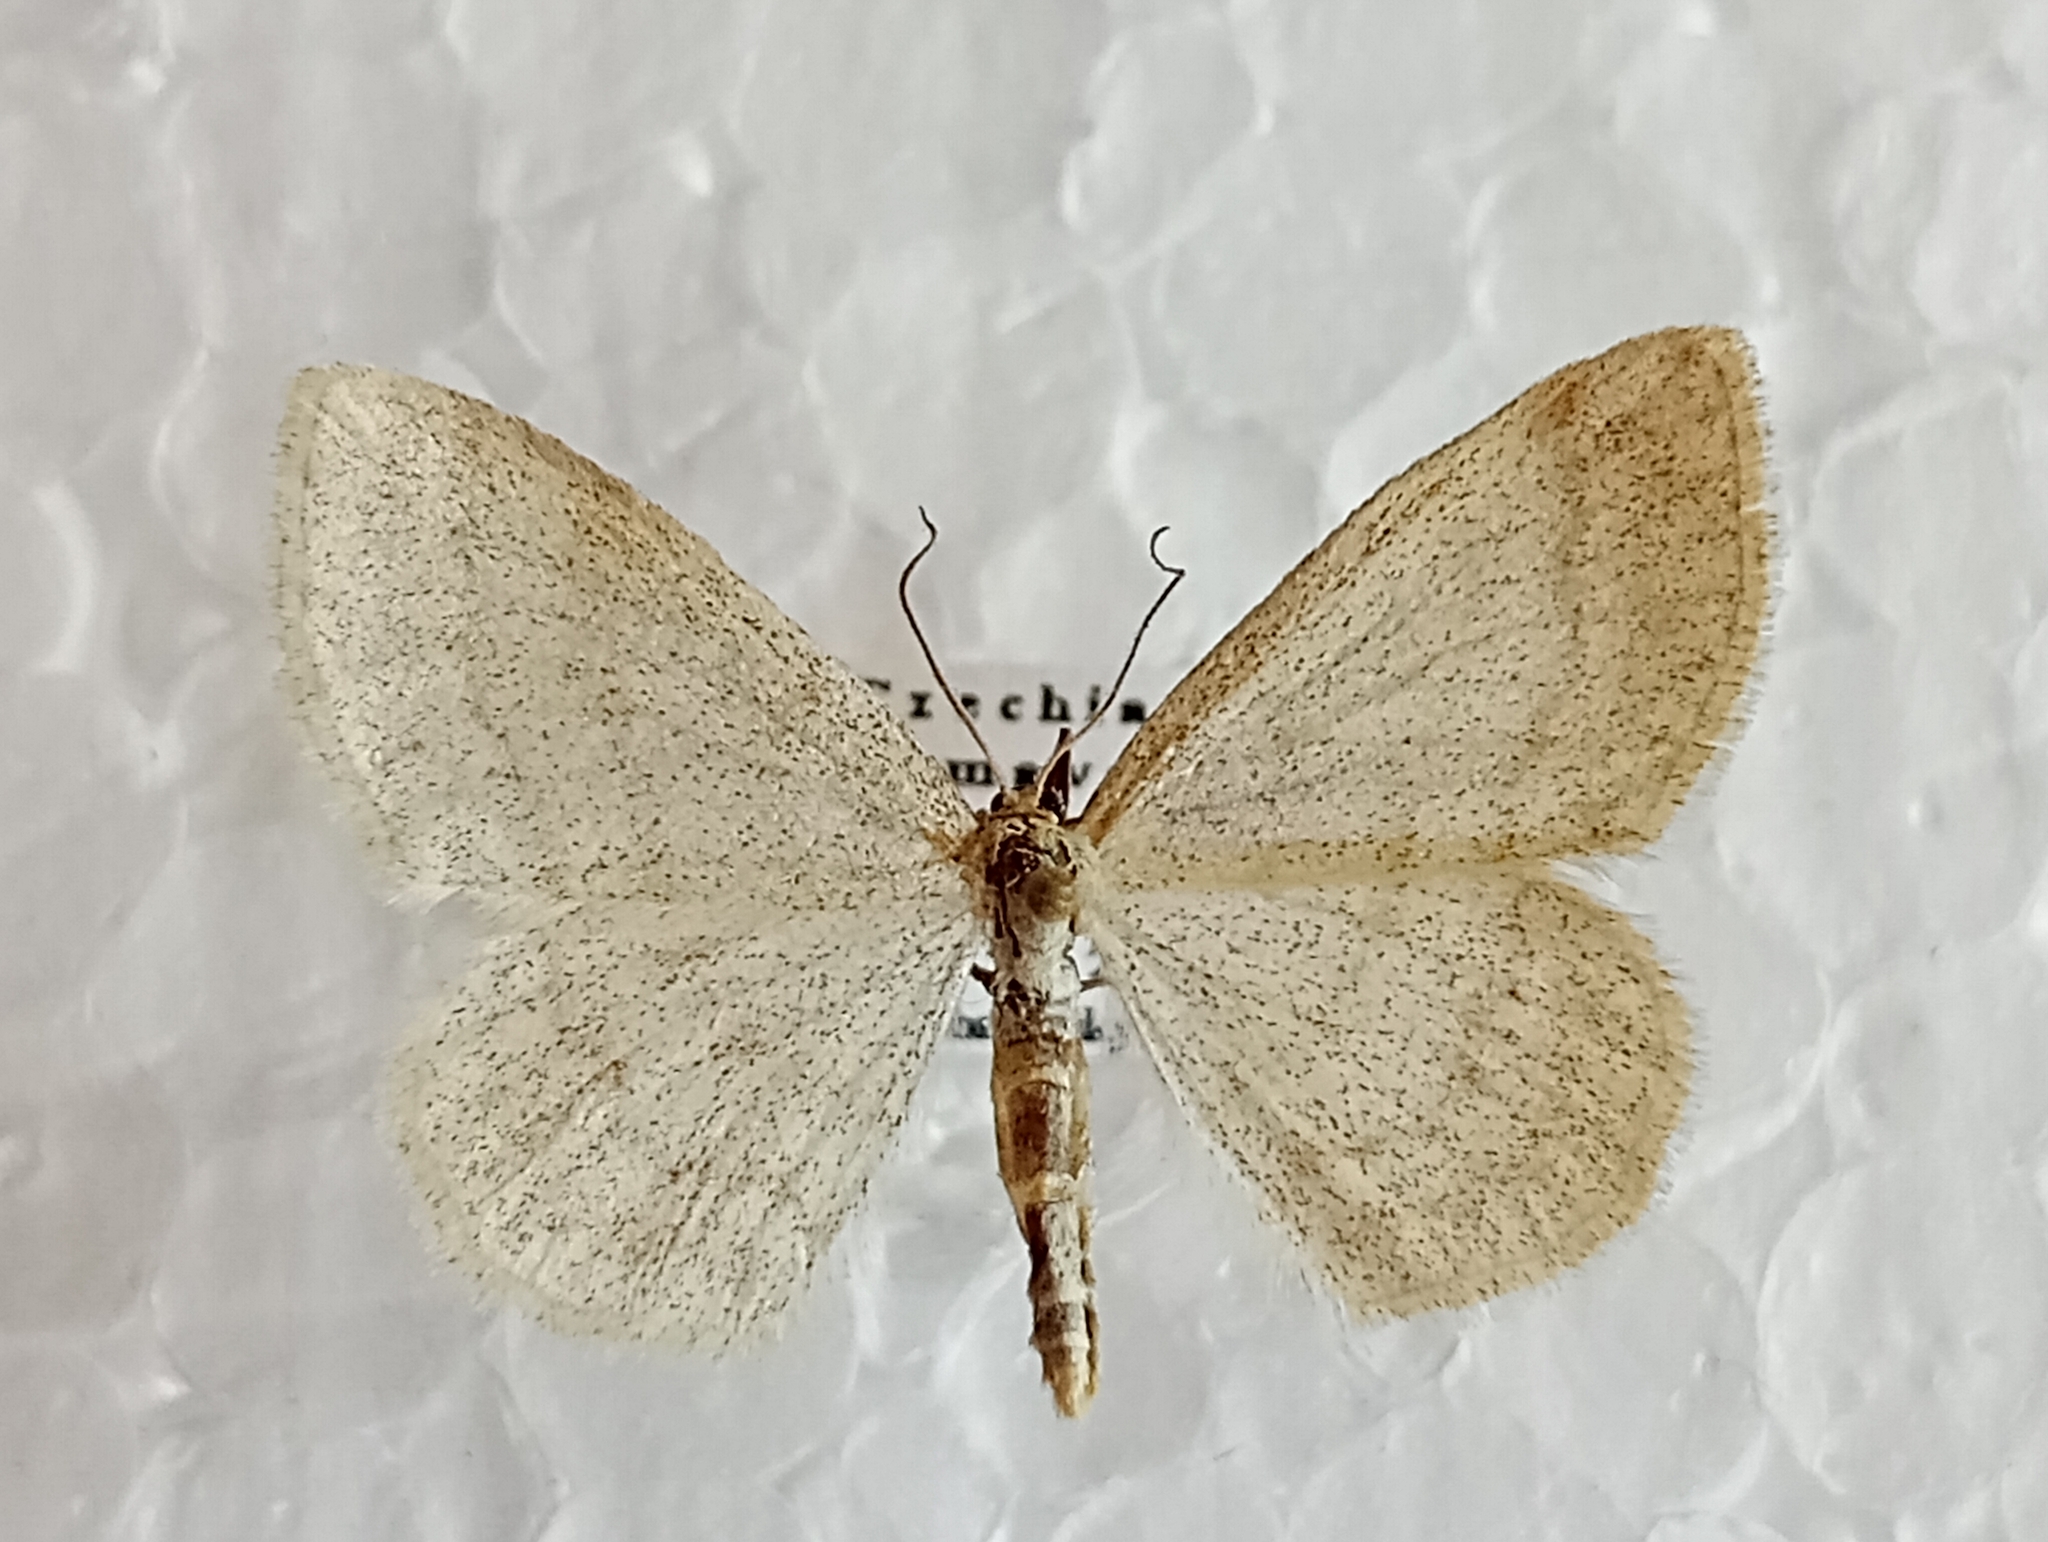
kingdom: Animalia
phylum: Arthropoda
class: Insecta
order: Lepidoptera
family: Geometridae
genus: Scopula
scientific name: Scopula ternata
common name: Smoky wave
